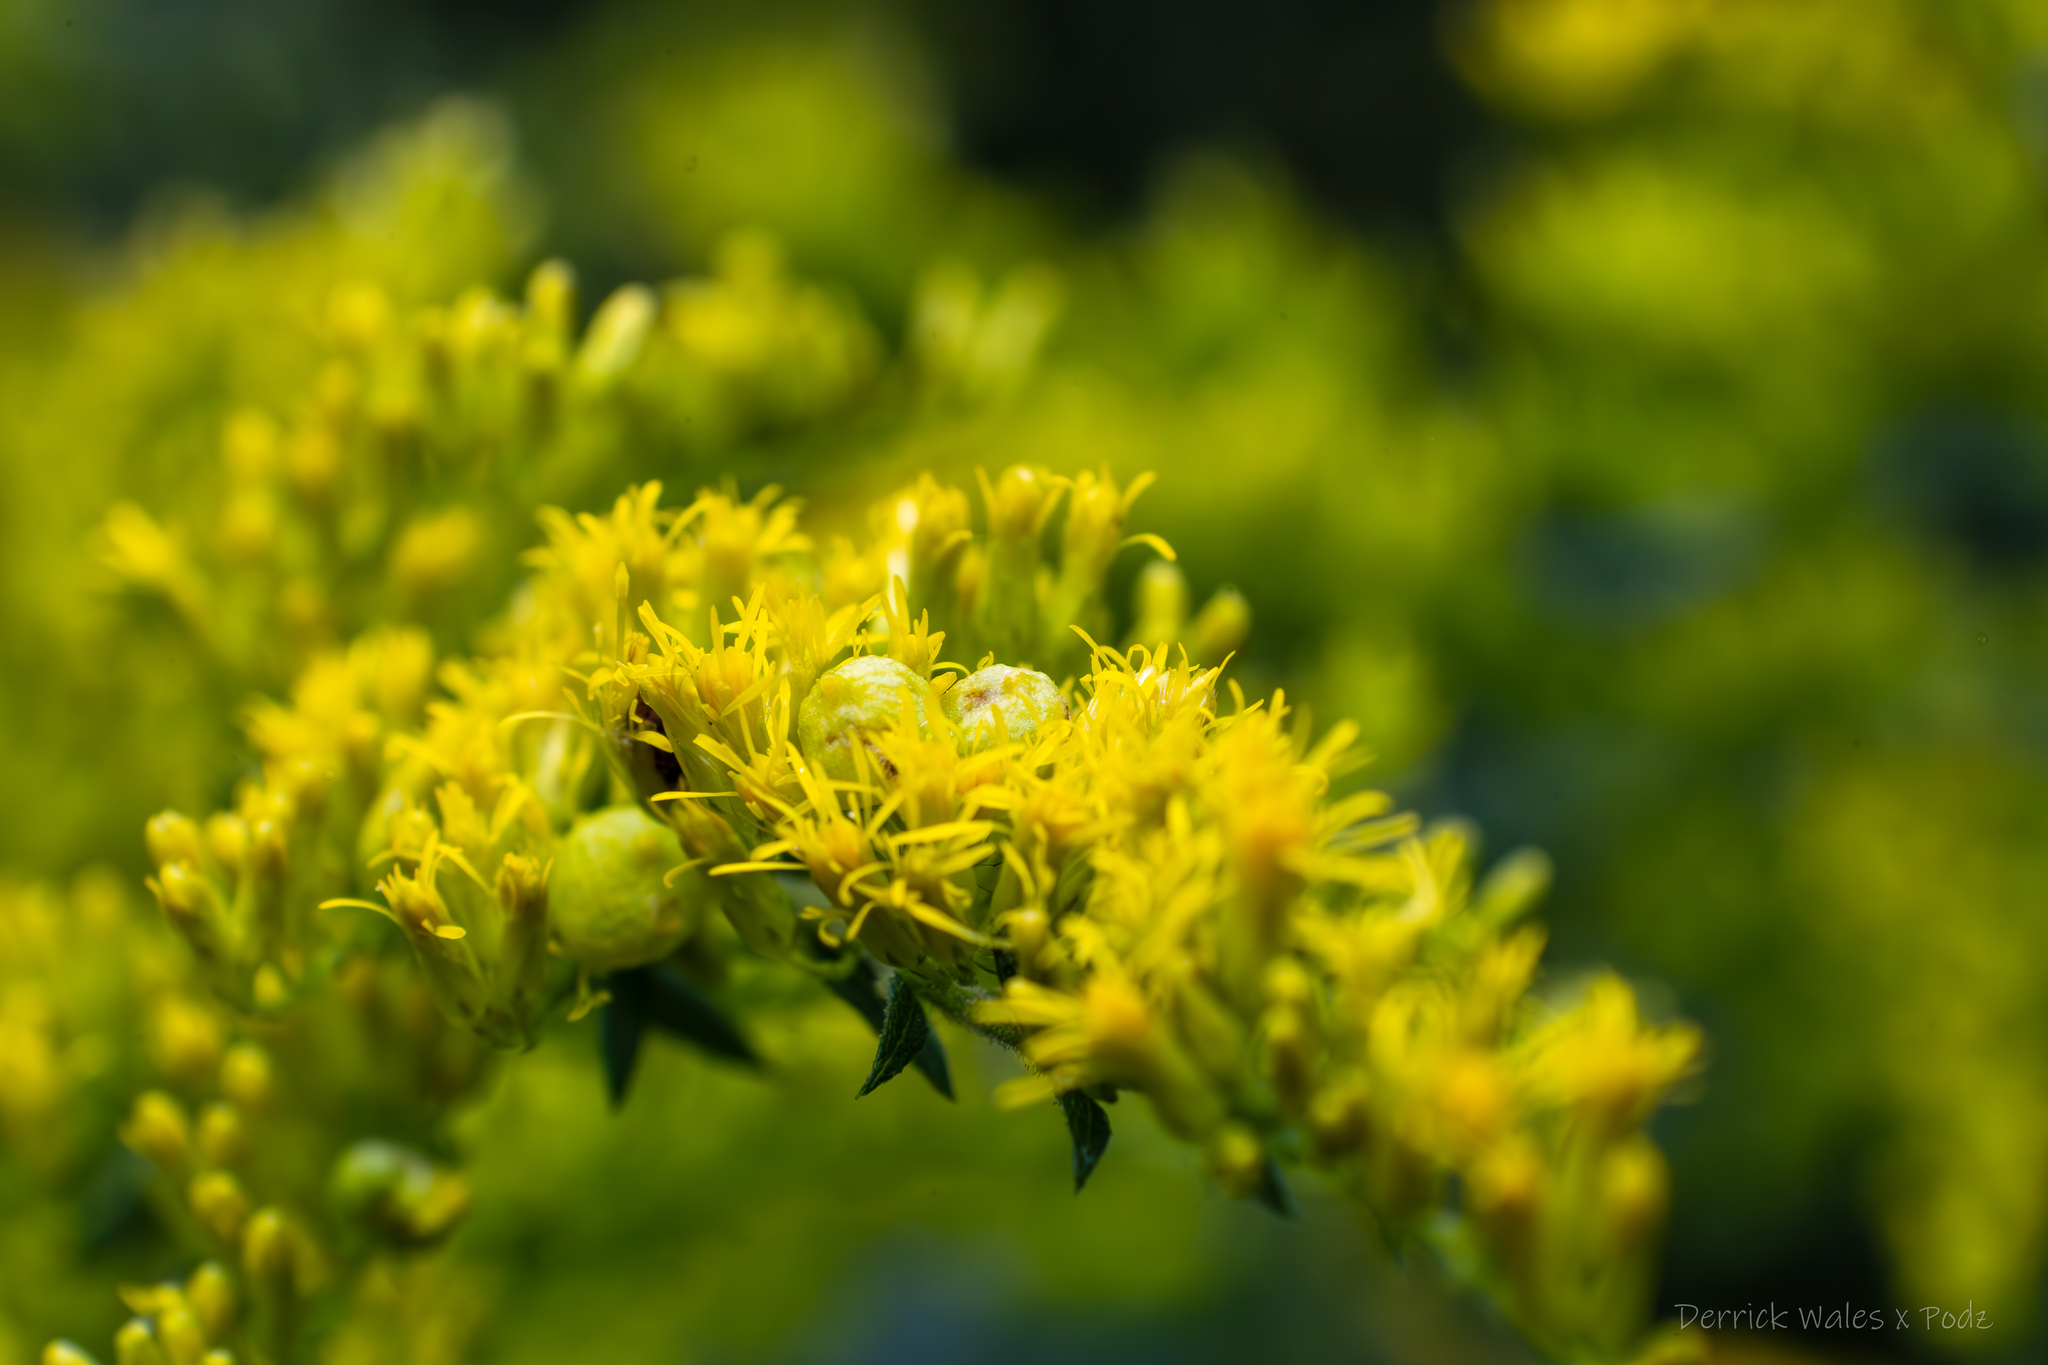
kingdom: Animalia
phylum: Arthropoda
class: Insecta
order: Diptera
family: Cecidomyiidae
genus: Schizomyia
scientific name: Schizomyia racemicola
